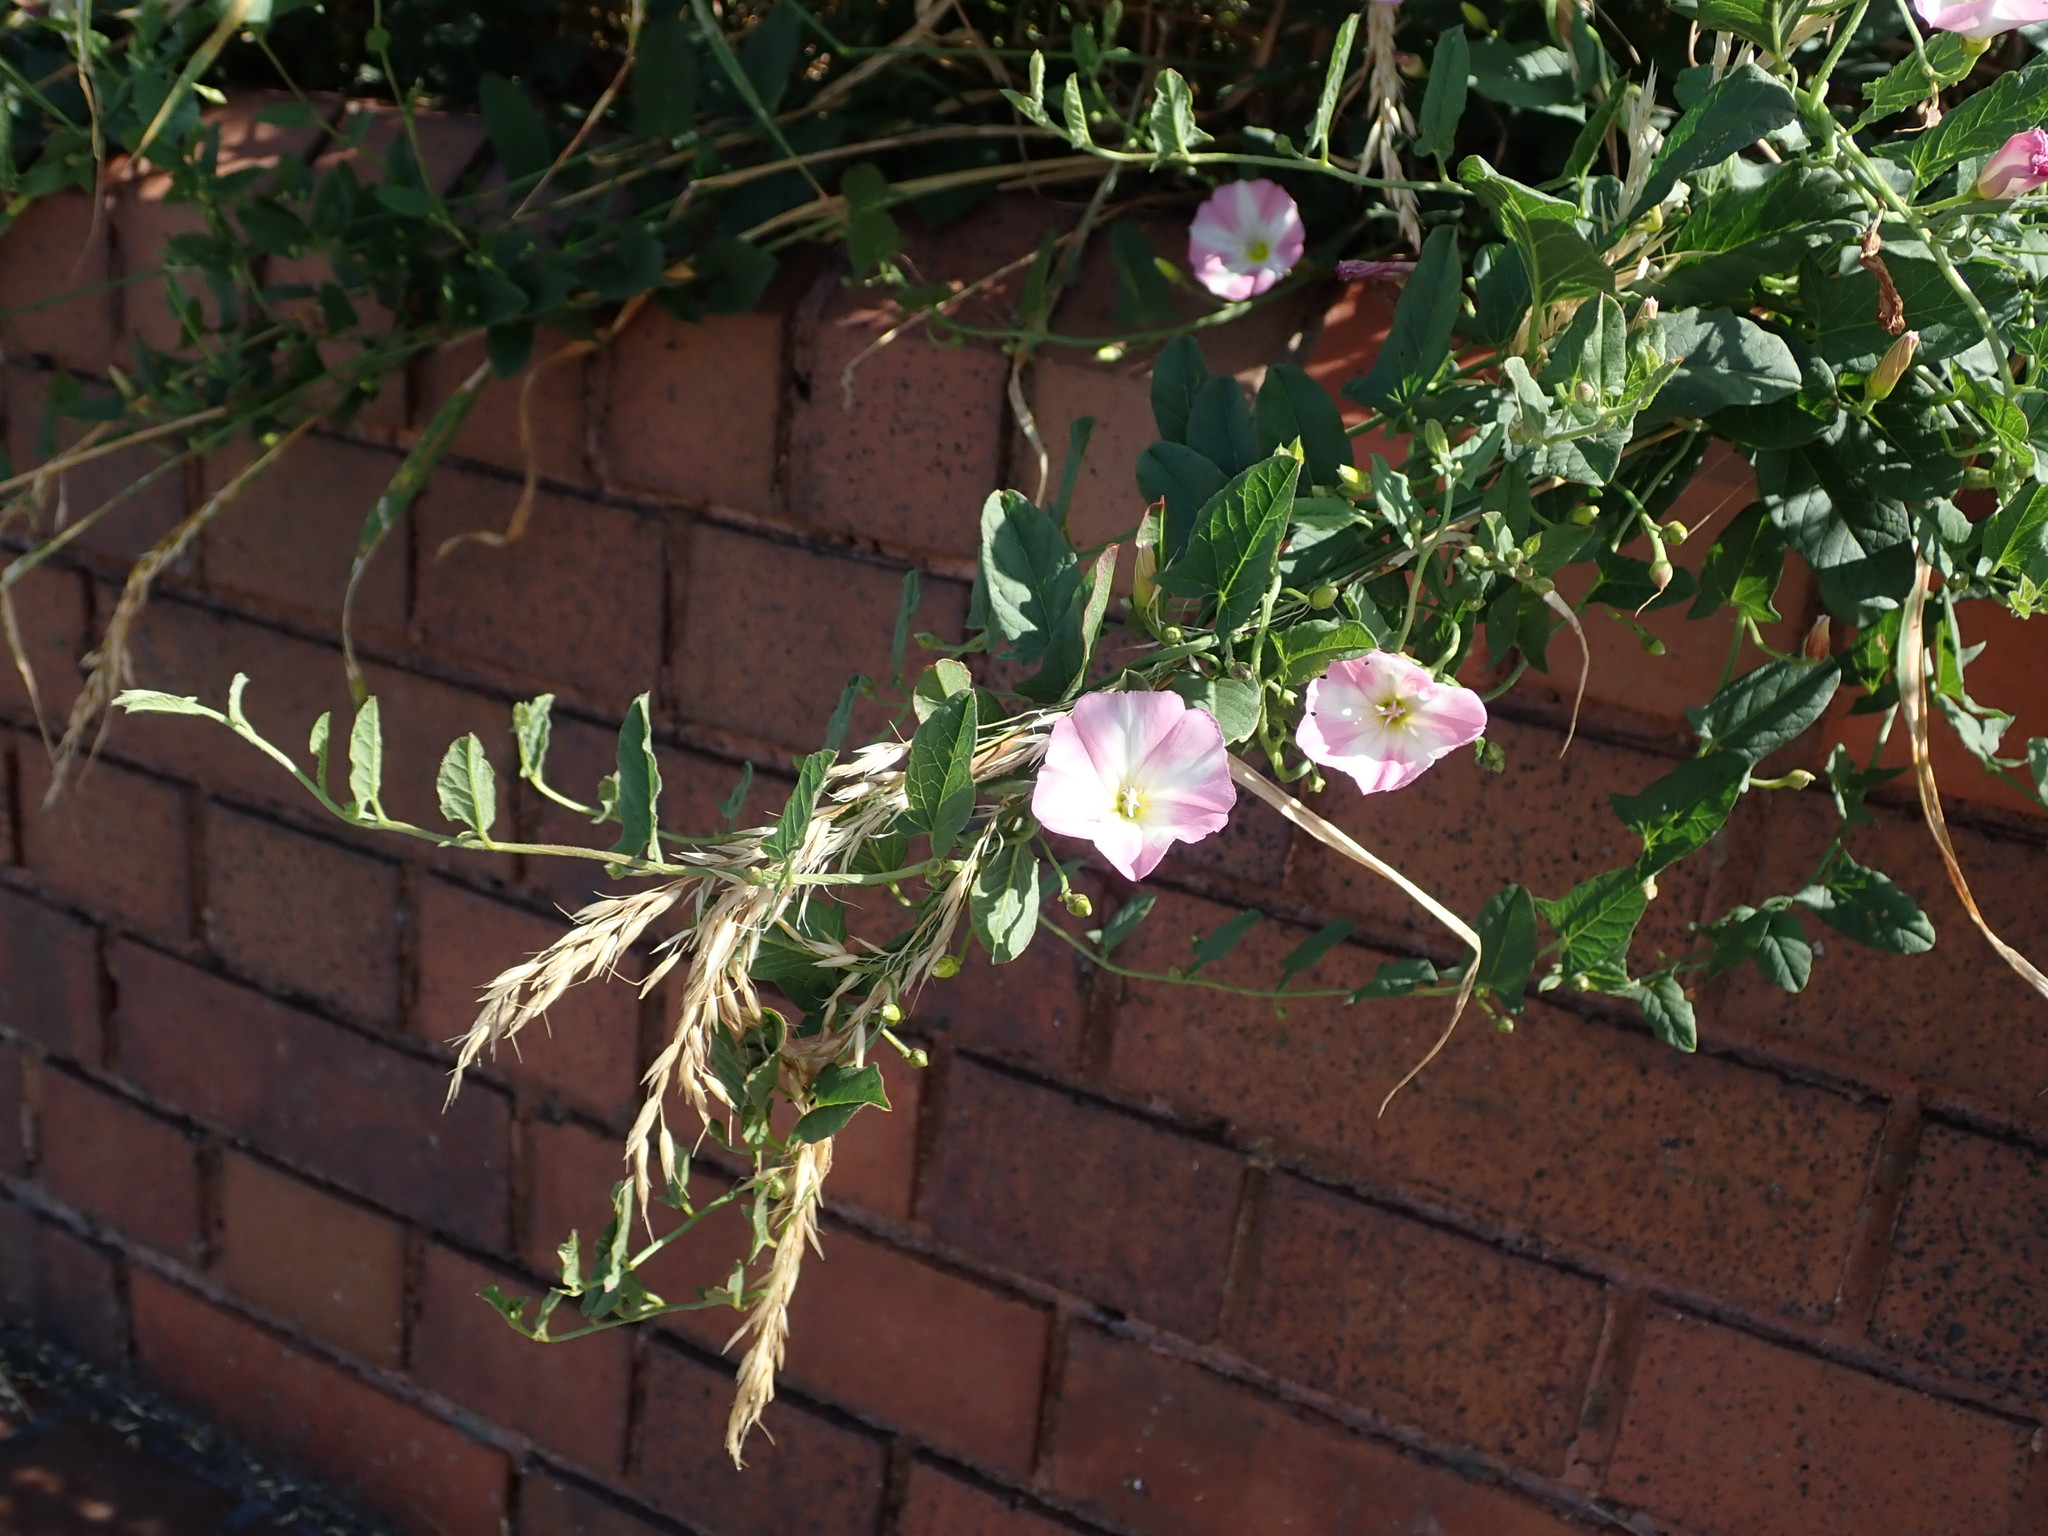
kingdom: Plantae
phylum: Tracheophyta
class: Magnoliopsida
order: Solanales
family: Convolvulaceae
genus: Convolvulus
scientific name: Convolvulus arvensis
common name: Field bindweed
